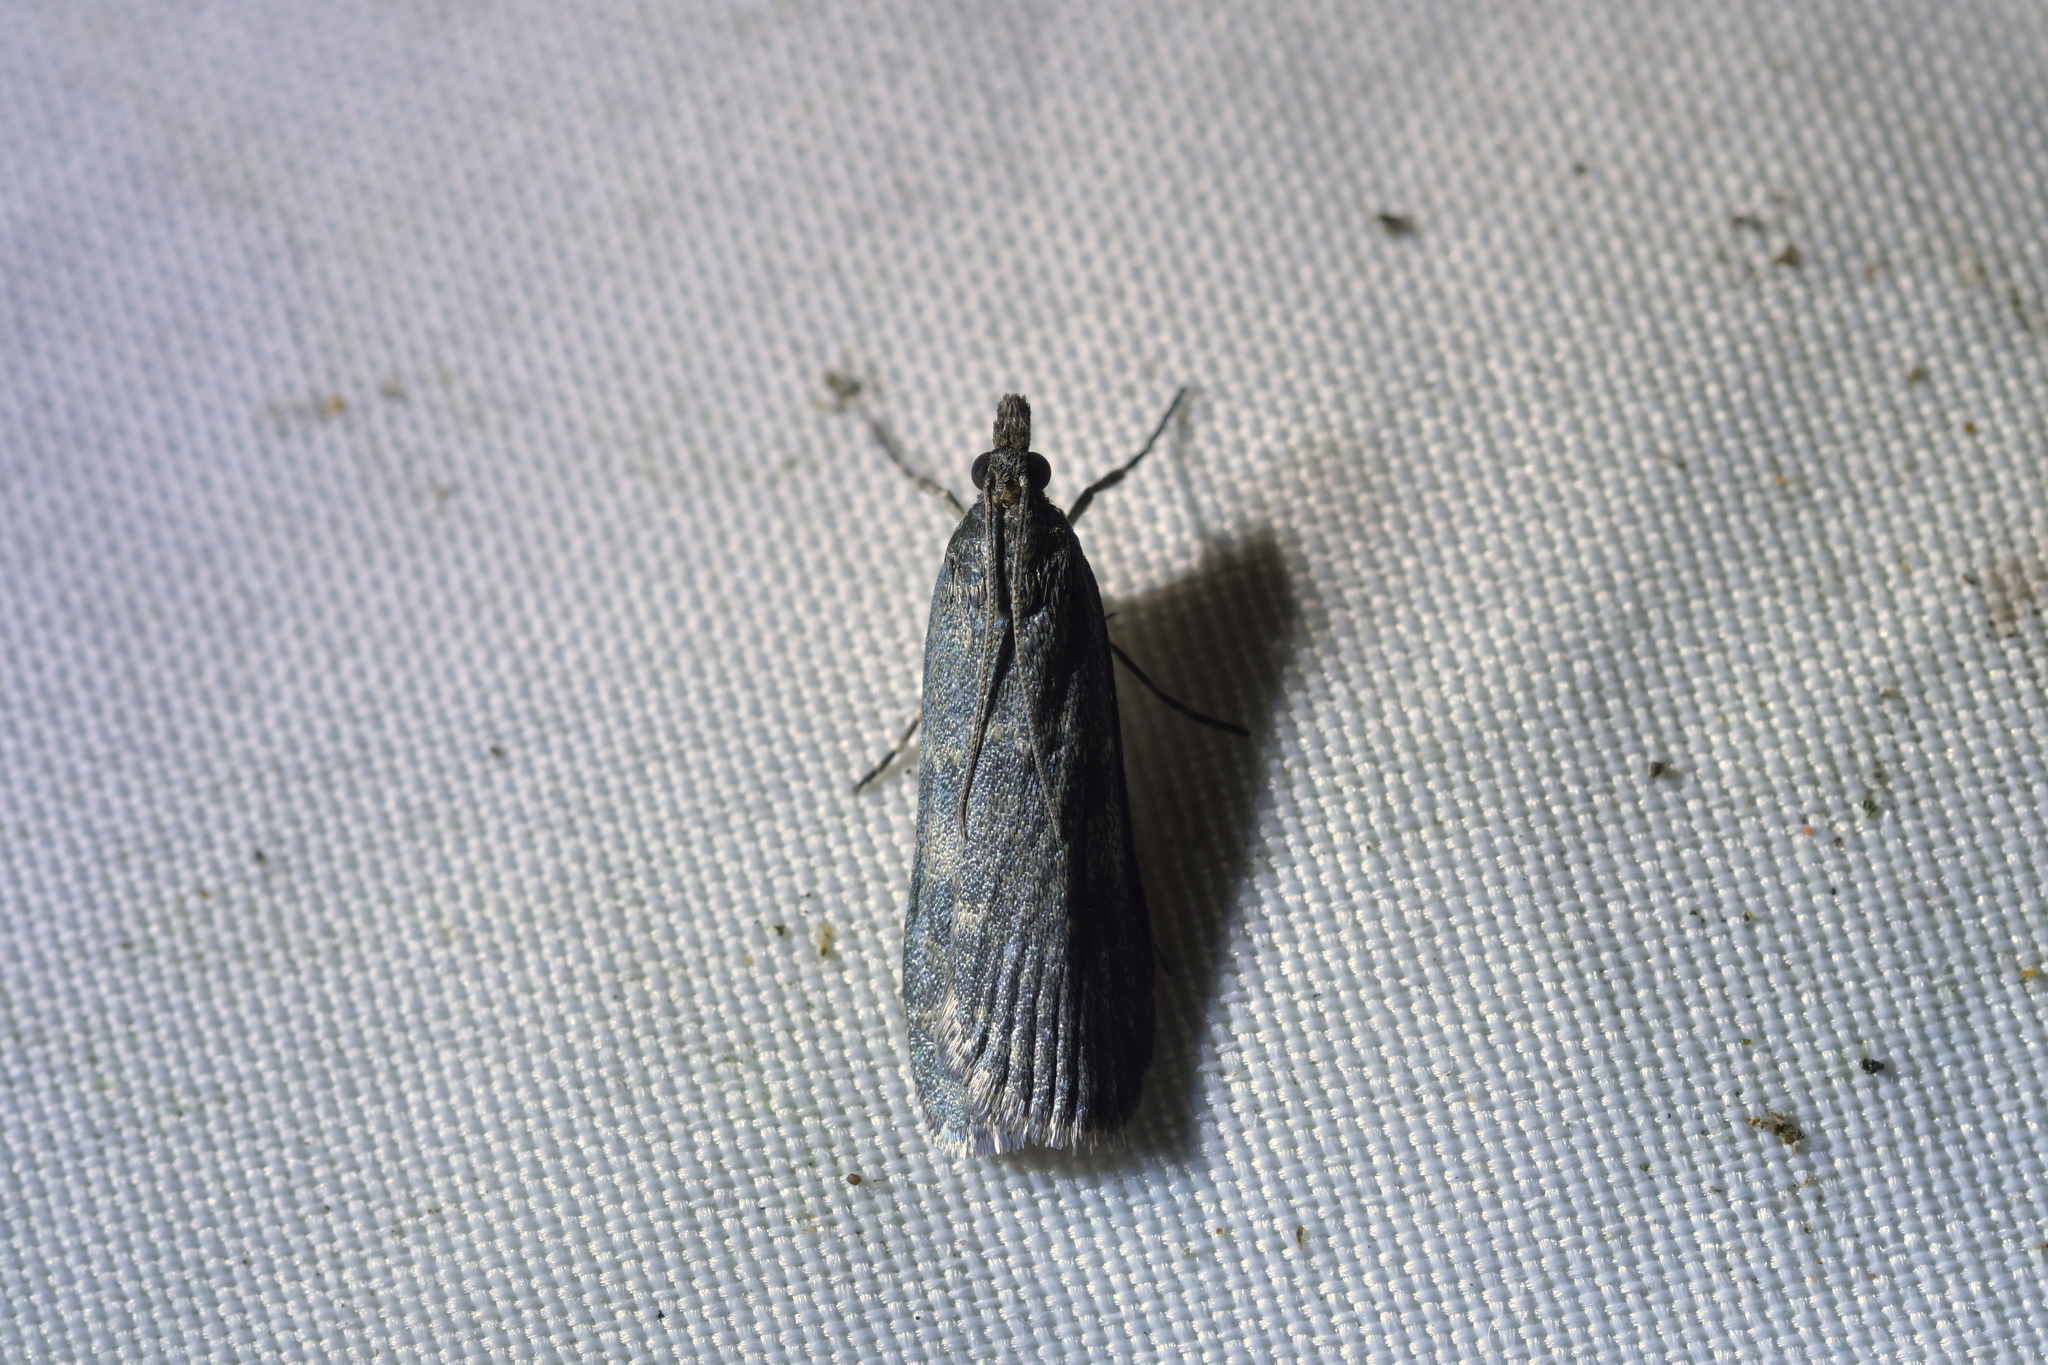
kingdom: Animalia
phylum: Arthropoda
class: Insecta
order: Lepidoptera
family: Crambidae
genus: Eudonia
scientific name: Eudonia cataxesta
